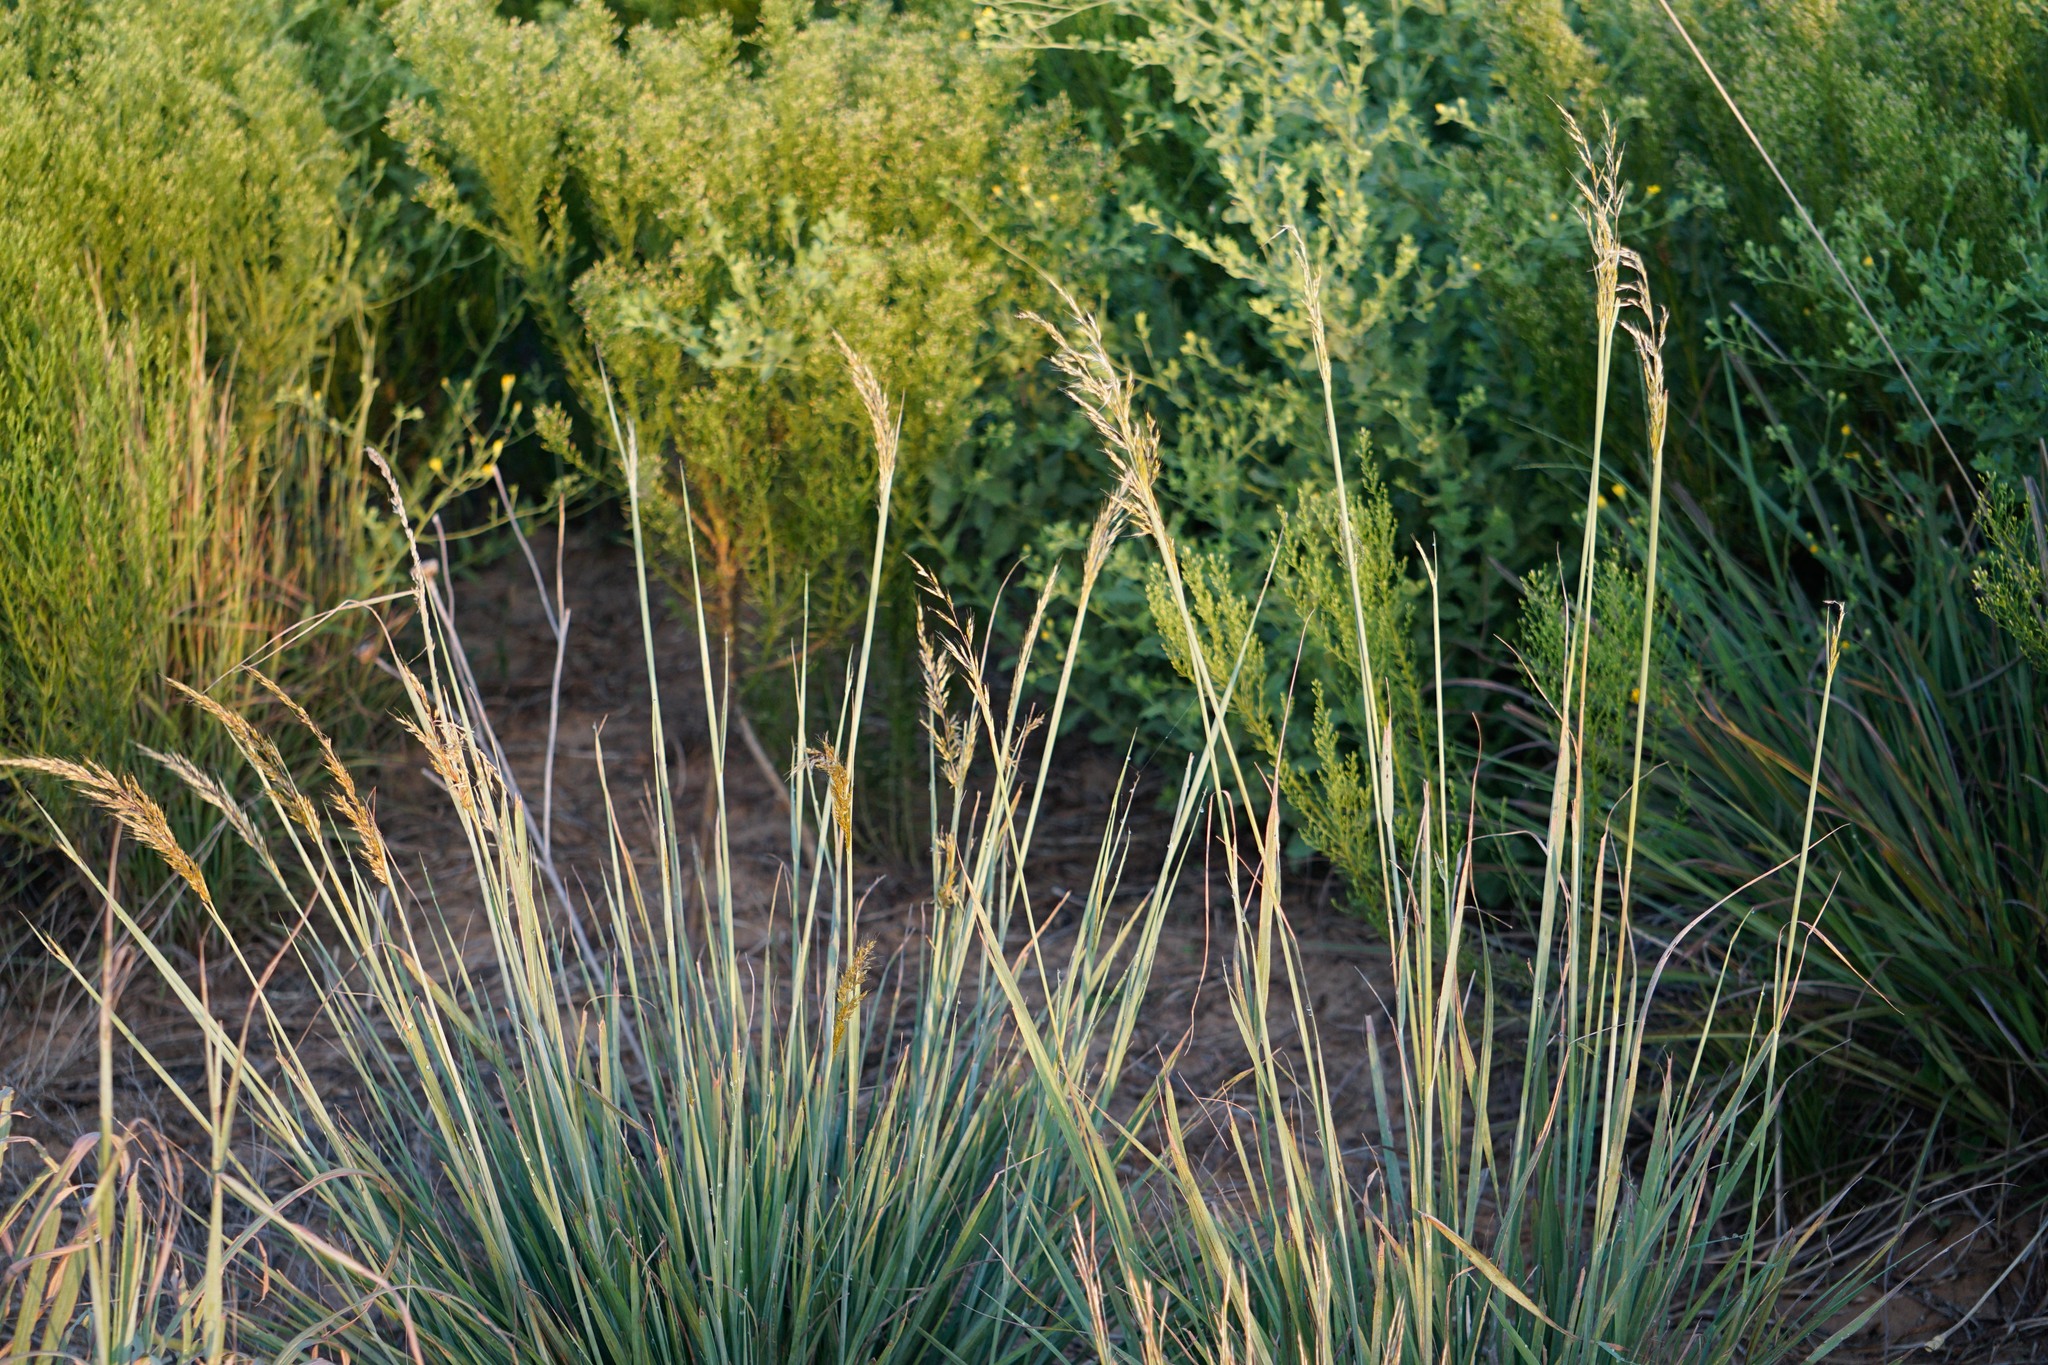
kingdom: Plantae
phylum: Tracheophyta
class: Liliopsida
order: Poales
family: Poaceae
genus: Sorghastrum
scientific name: Sorghastrum nutans
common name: Indian grass
